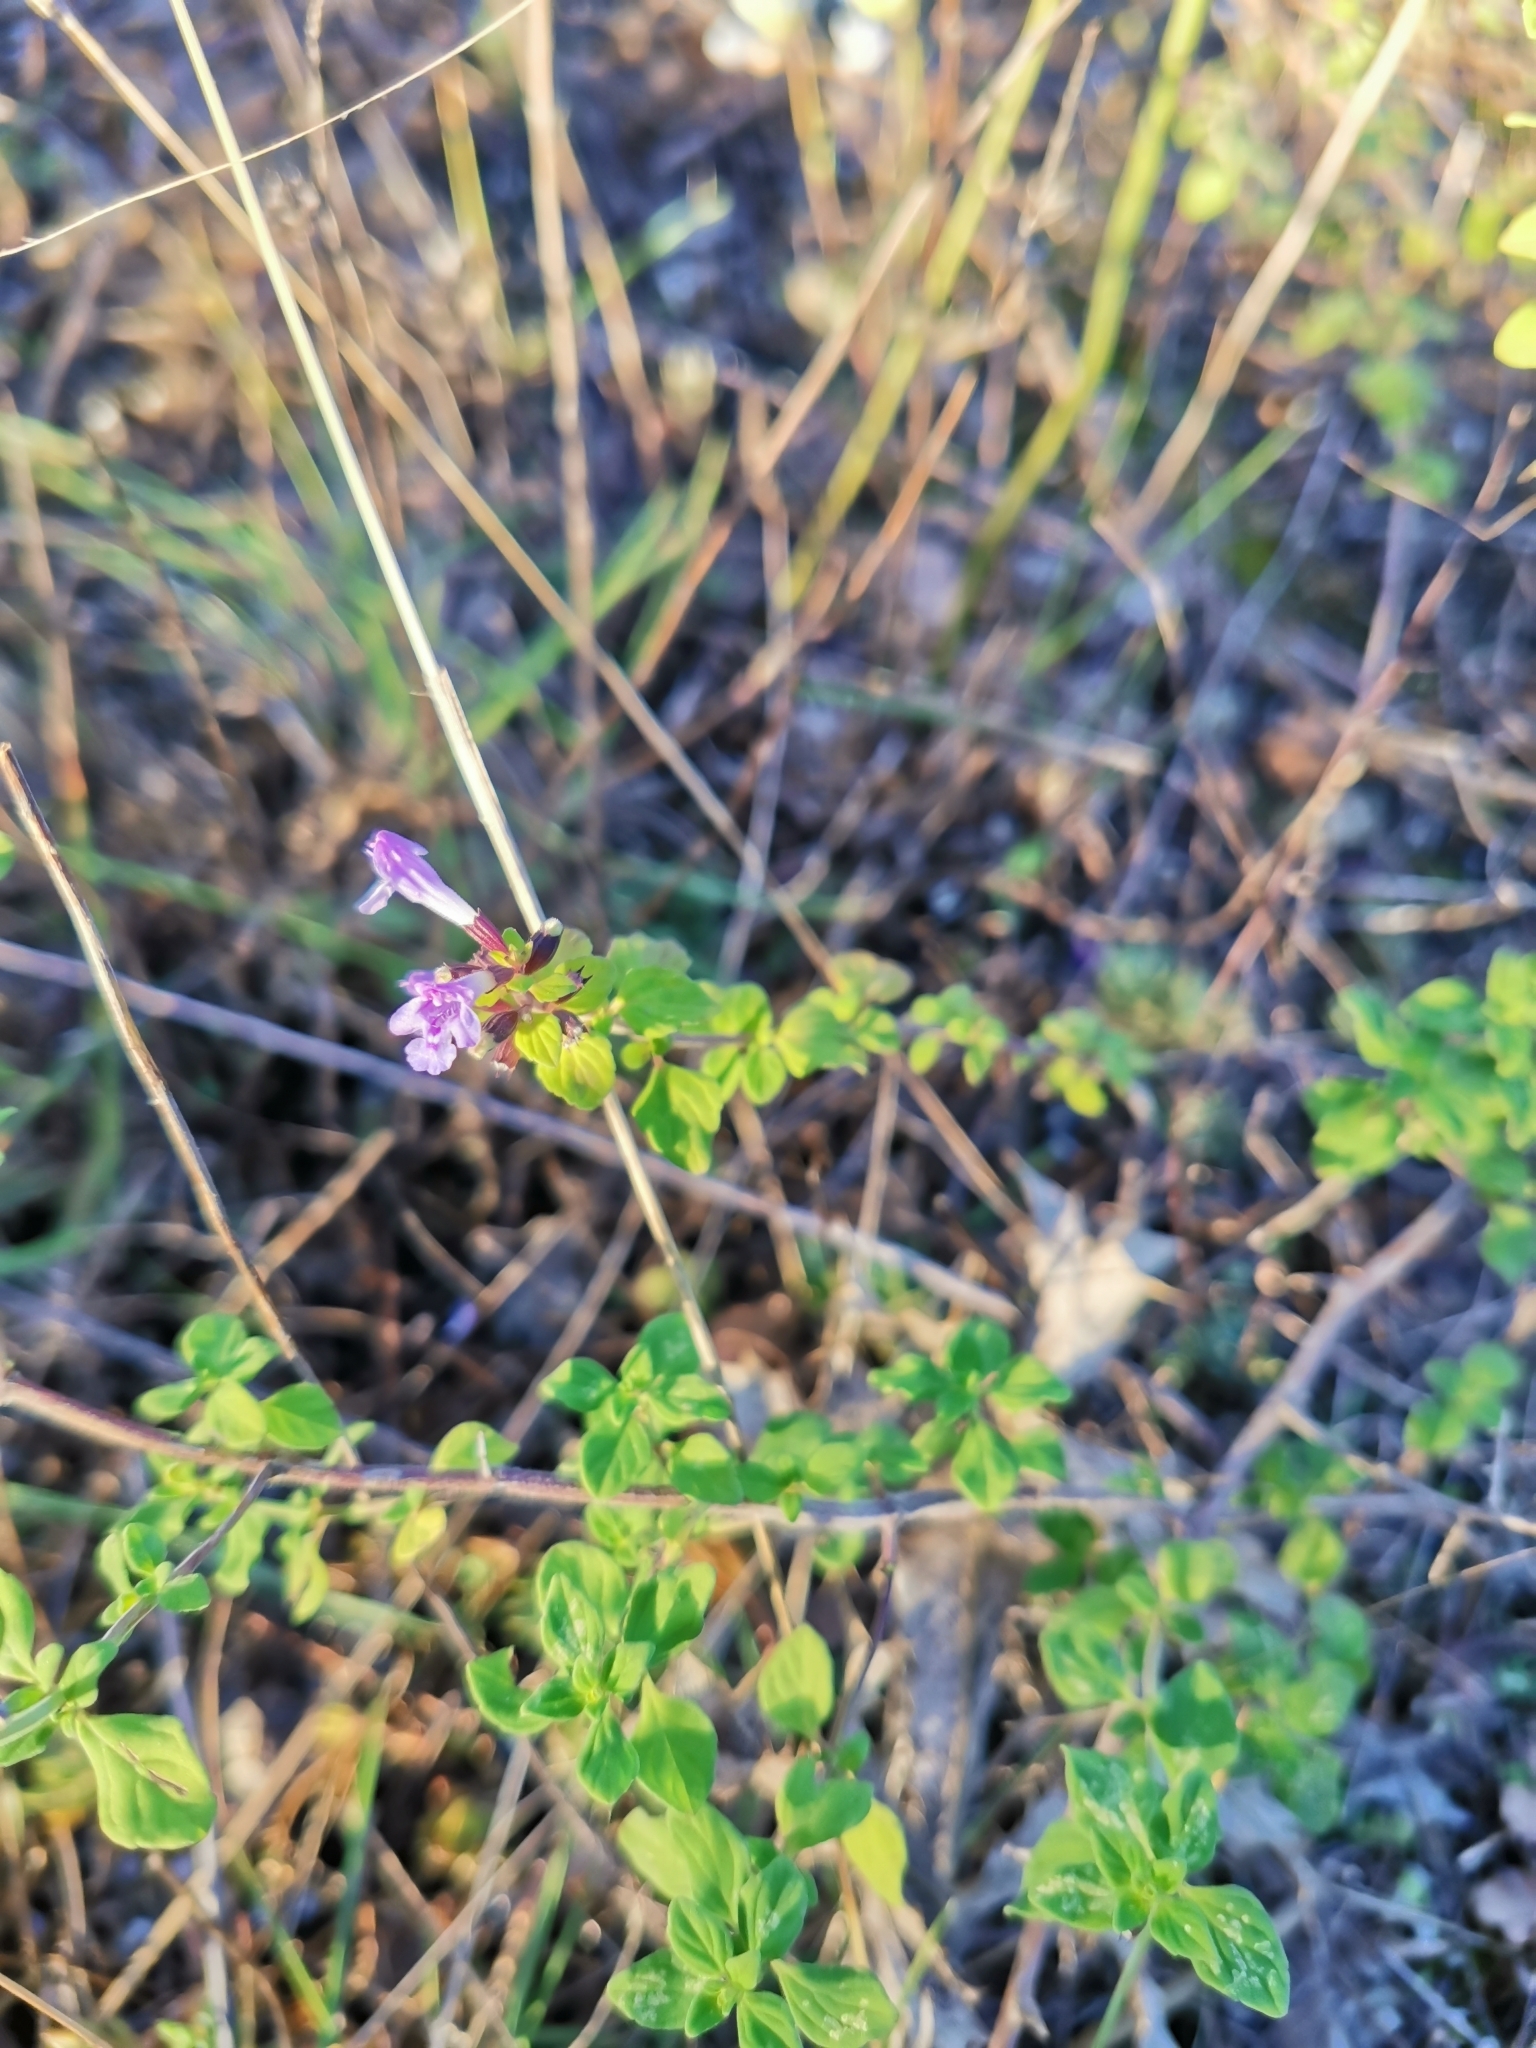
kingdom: Plantae
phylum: Tracheophyta
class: Magnoliopsida
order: Lamiales
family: Lamiaceae
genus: Clinopodium
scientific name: Clinopodium nepeta
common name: Lesser calamint
